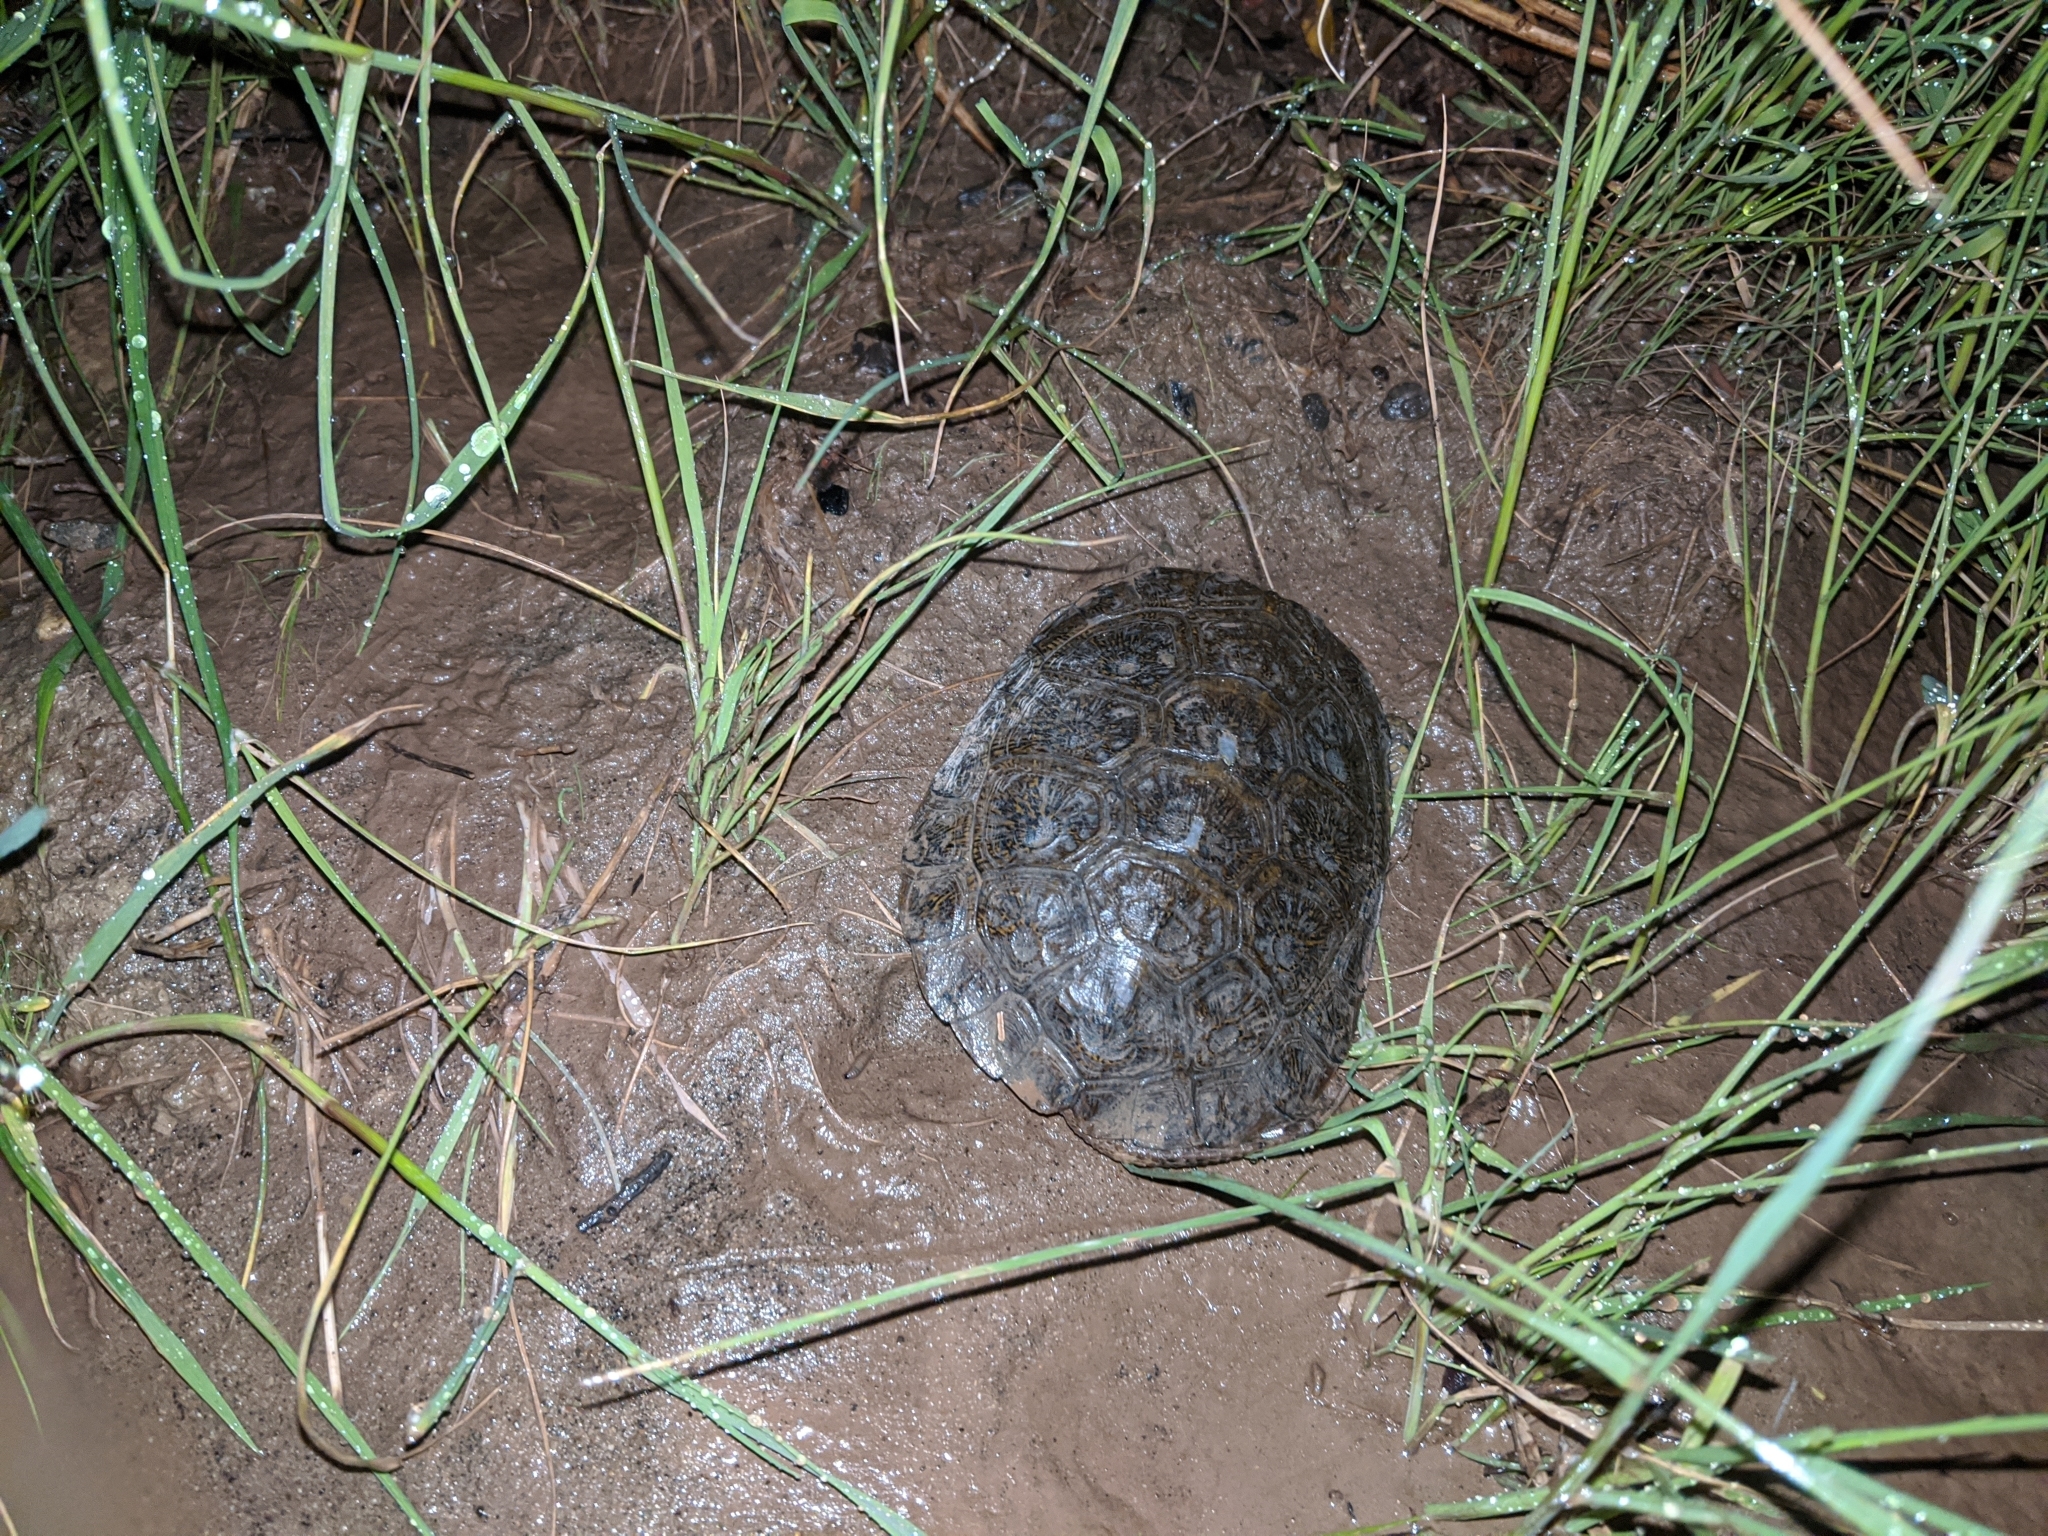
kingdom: Animalia
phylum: Chordata
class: Testudines
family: Emydidae
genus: Actinemys
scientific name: Actinemys marmorata
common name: Western pond turtle
